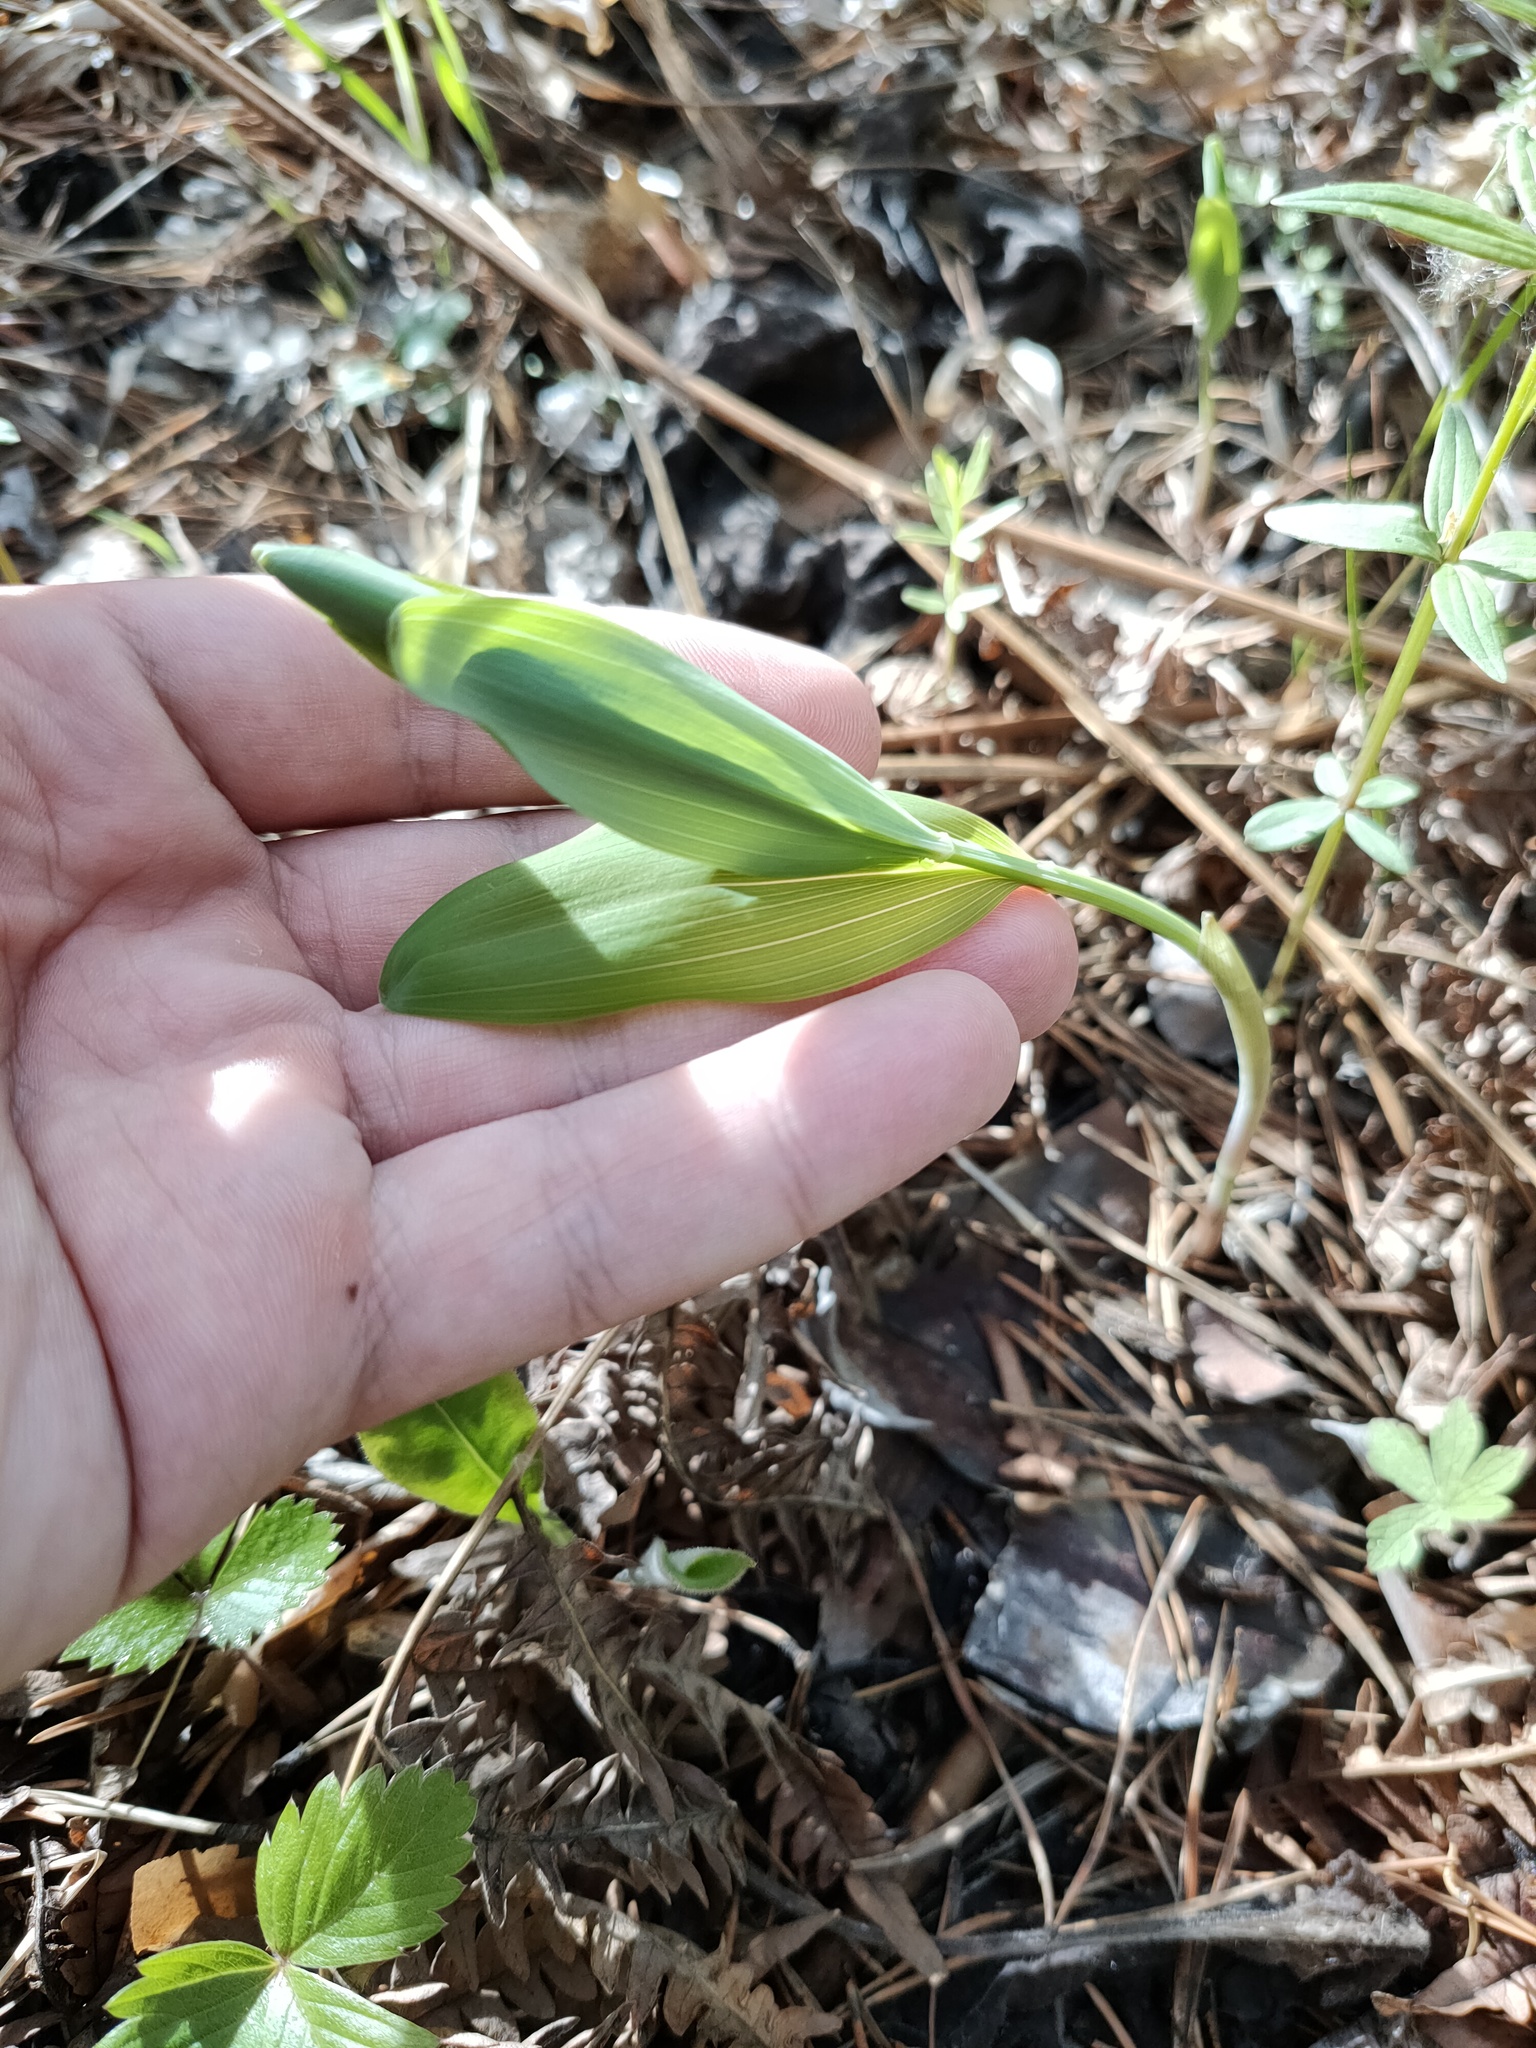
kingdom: Plantae
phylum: Tracheophyta
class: Liliopsida
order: Asparagales
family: Asparagaceae
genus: Polygonatum
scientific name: Polygonatum odoratum
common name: Angular solomon's-seal
